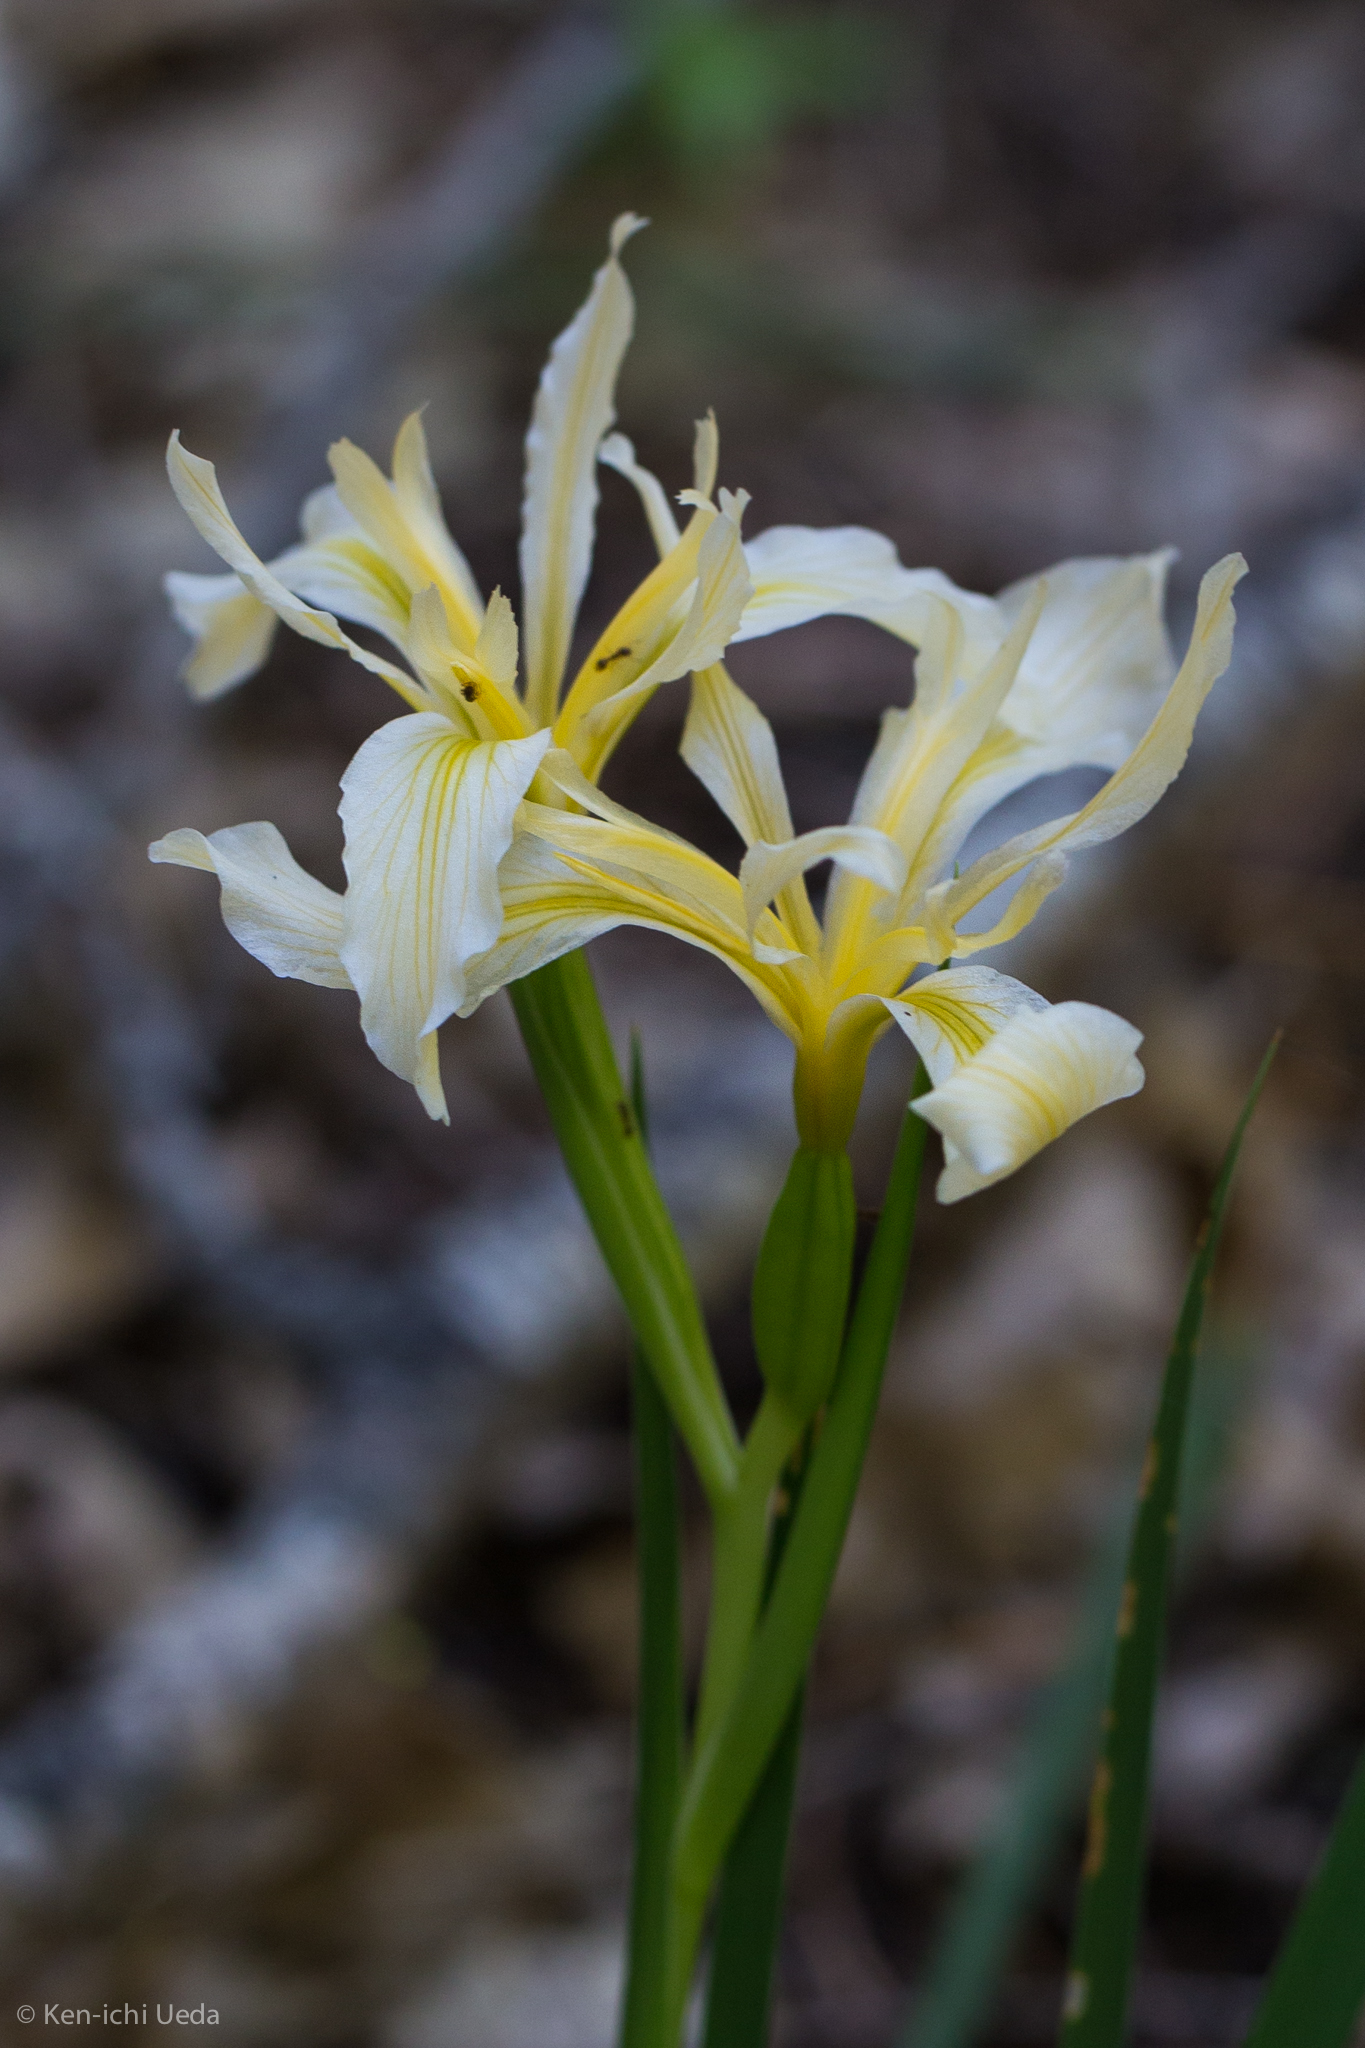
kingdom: Plantae
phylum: Tracheophyta
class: Liliopsida
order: Asparagales
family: Iridaceae
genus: Iris
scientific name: Iris hartwegii
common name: Sierra iris
